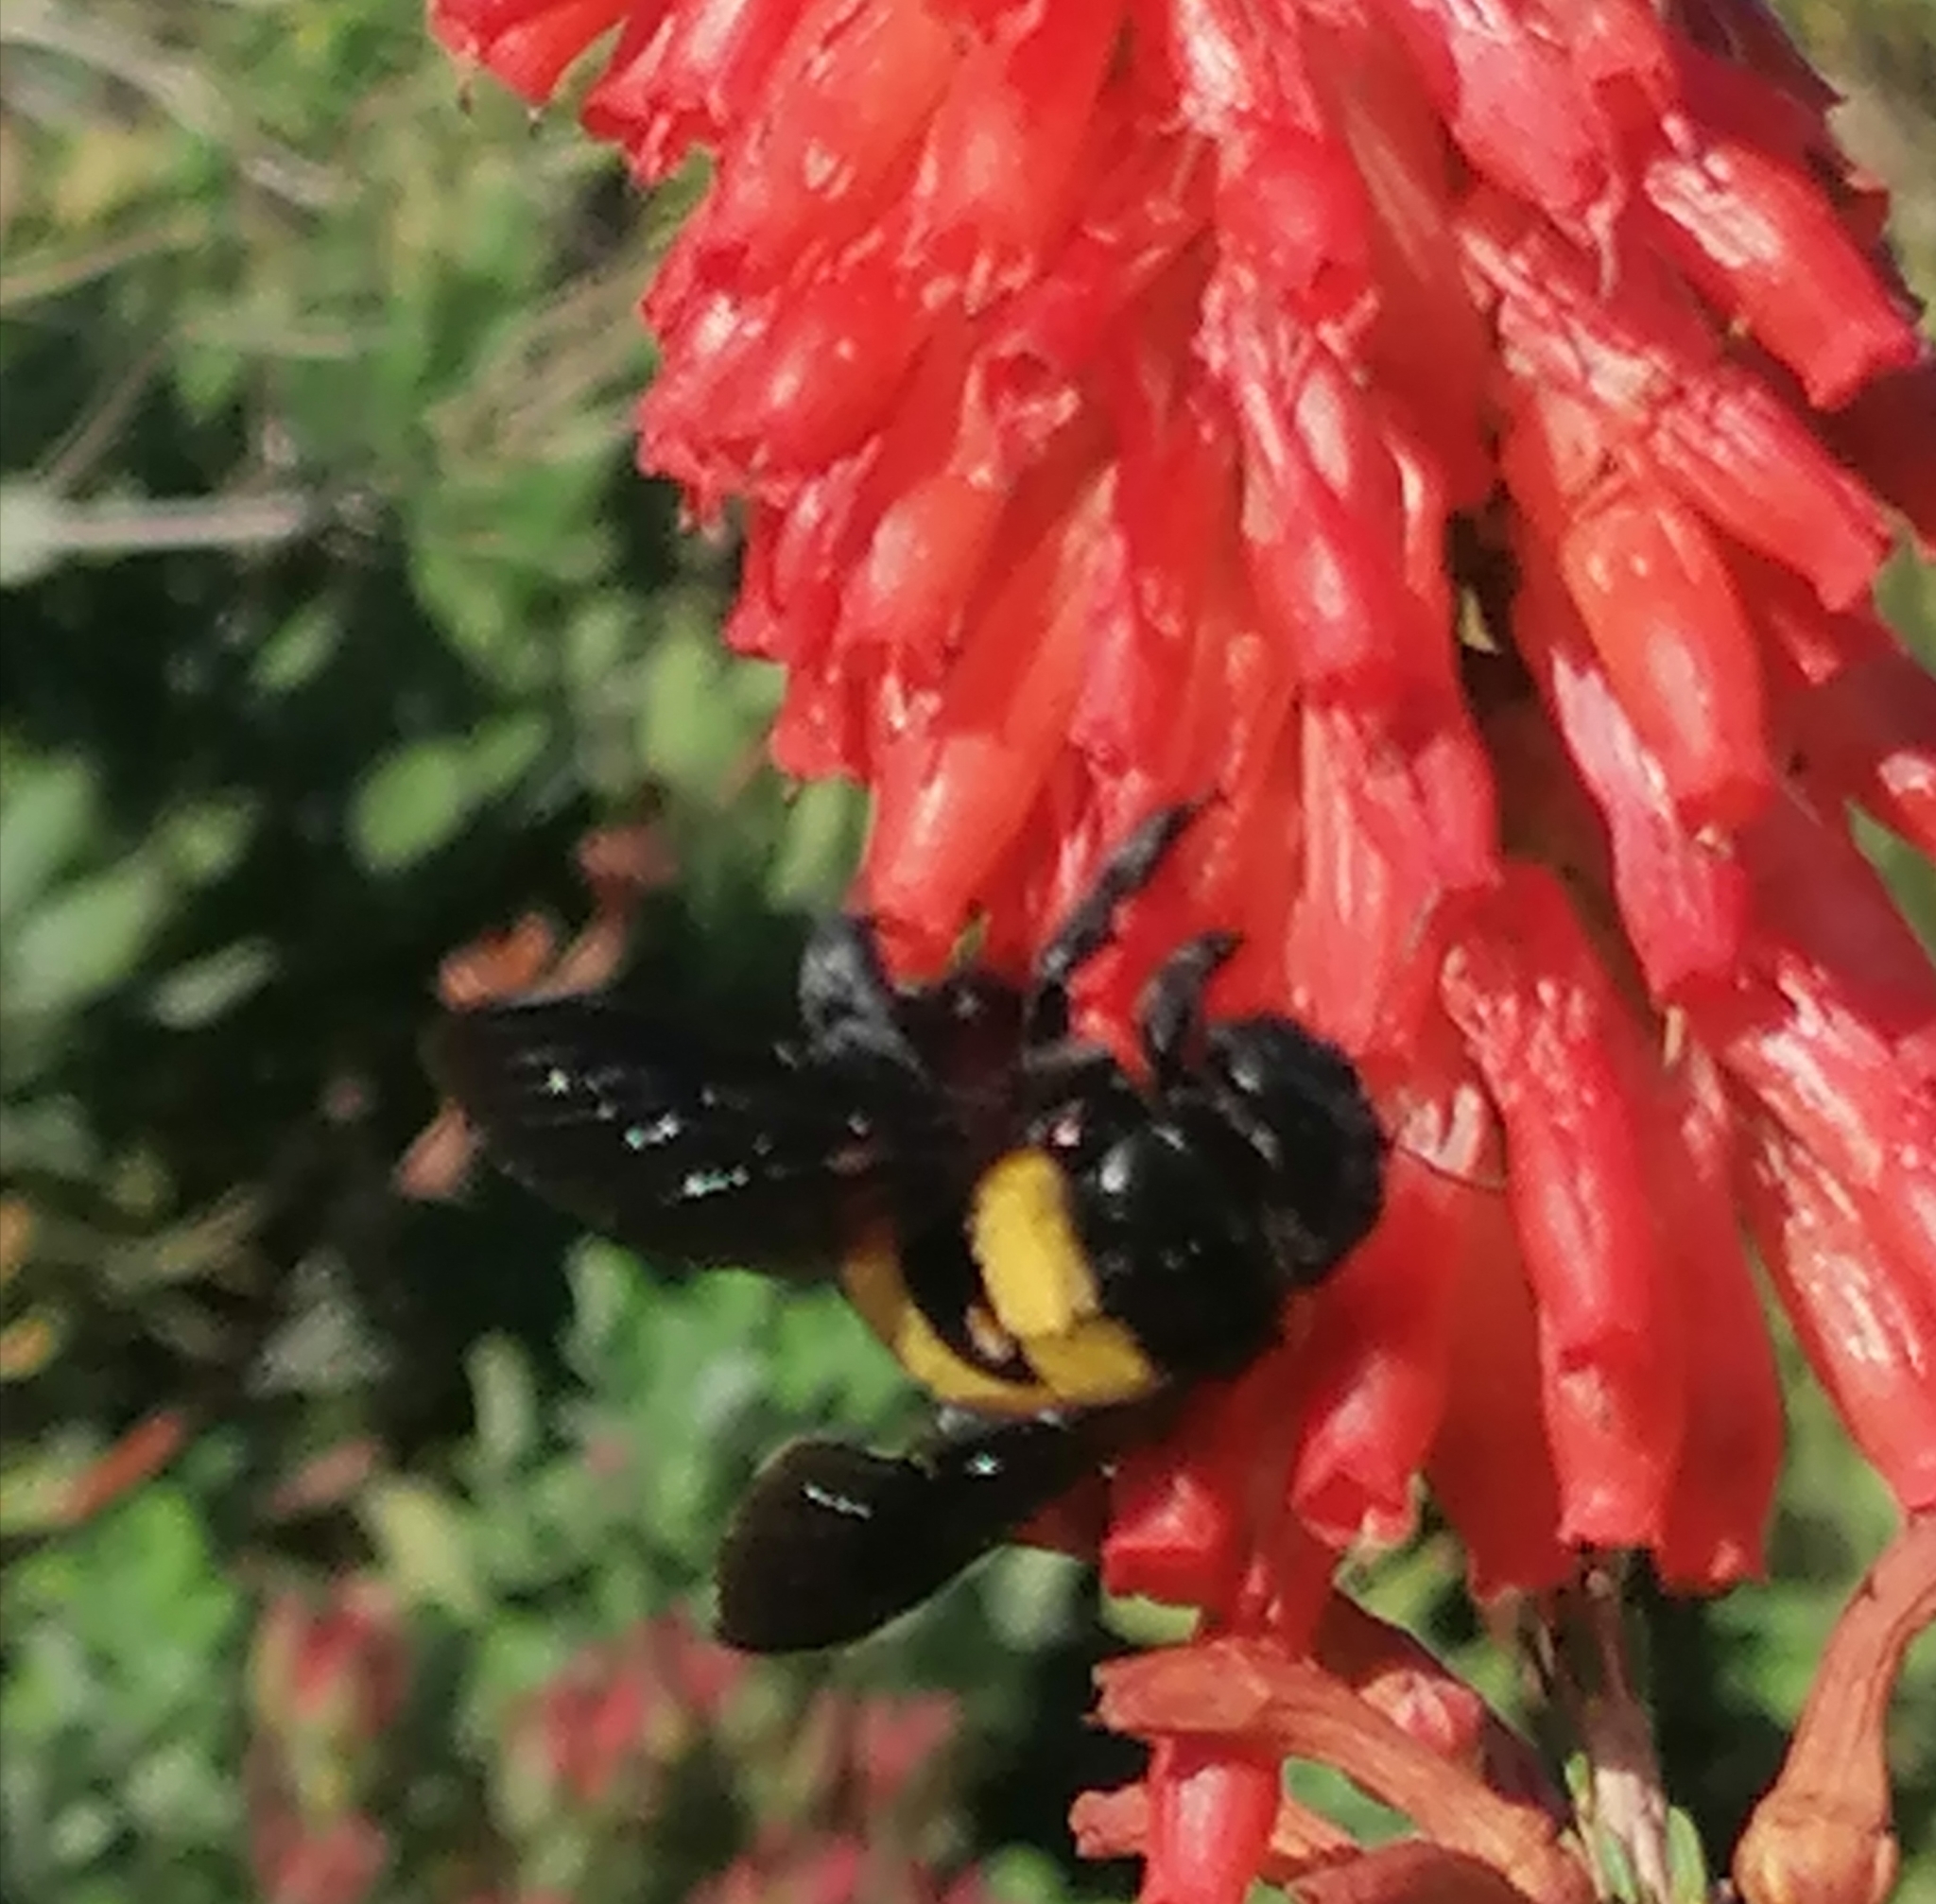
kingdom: Animalia
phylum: Arthropoda
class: Insecta
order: Hymenoptera
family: Apidae
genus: Xylocopa
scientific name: Xylocopa caffra
